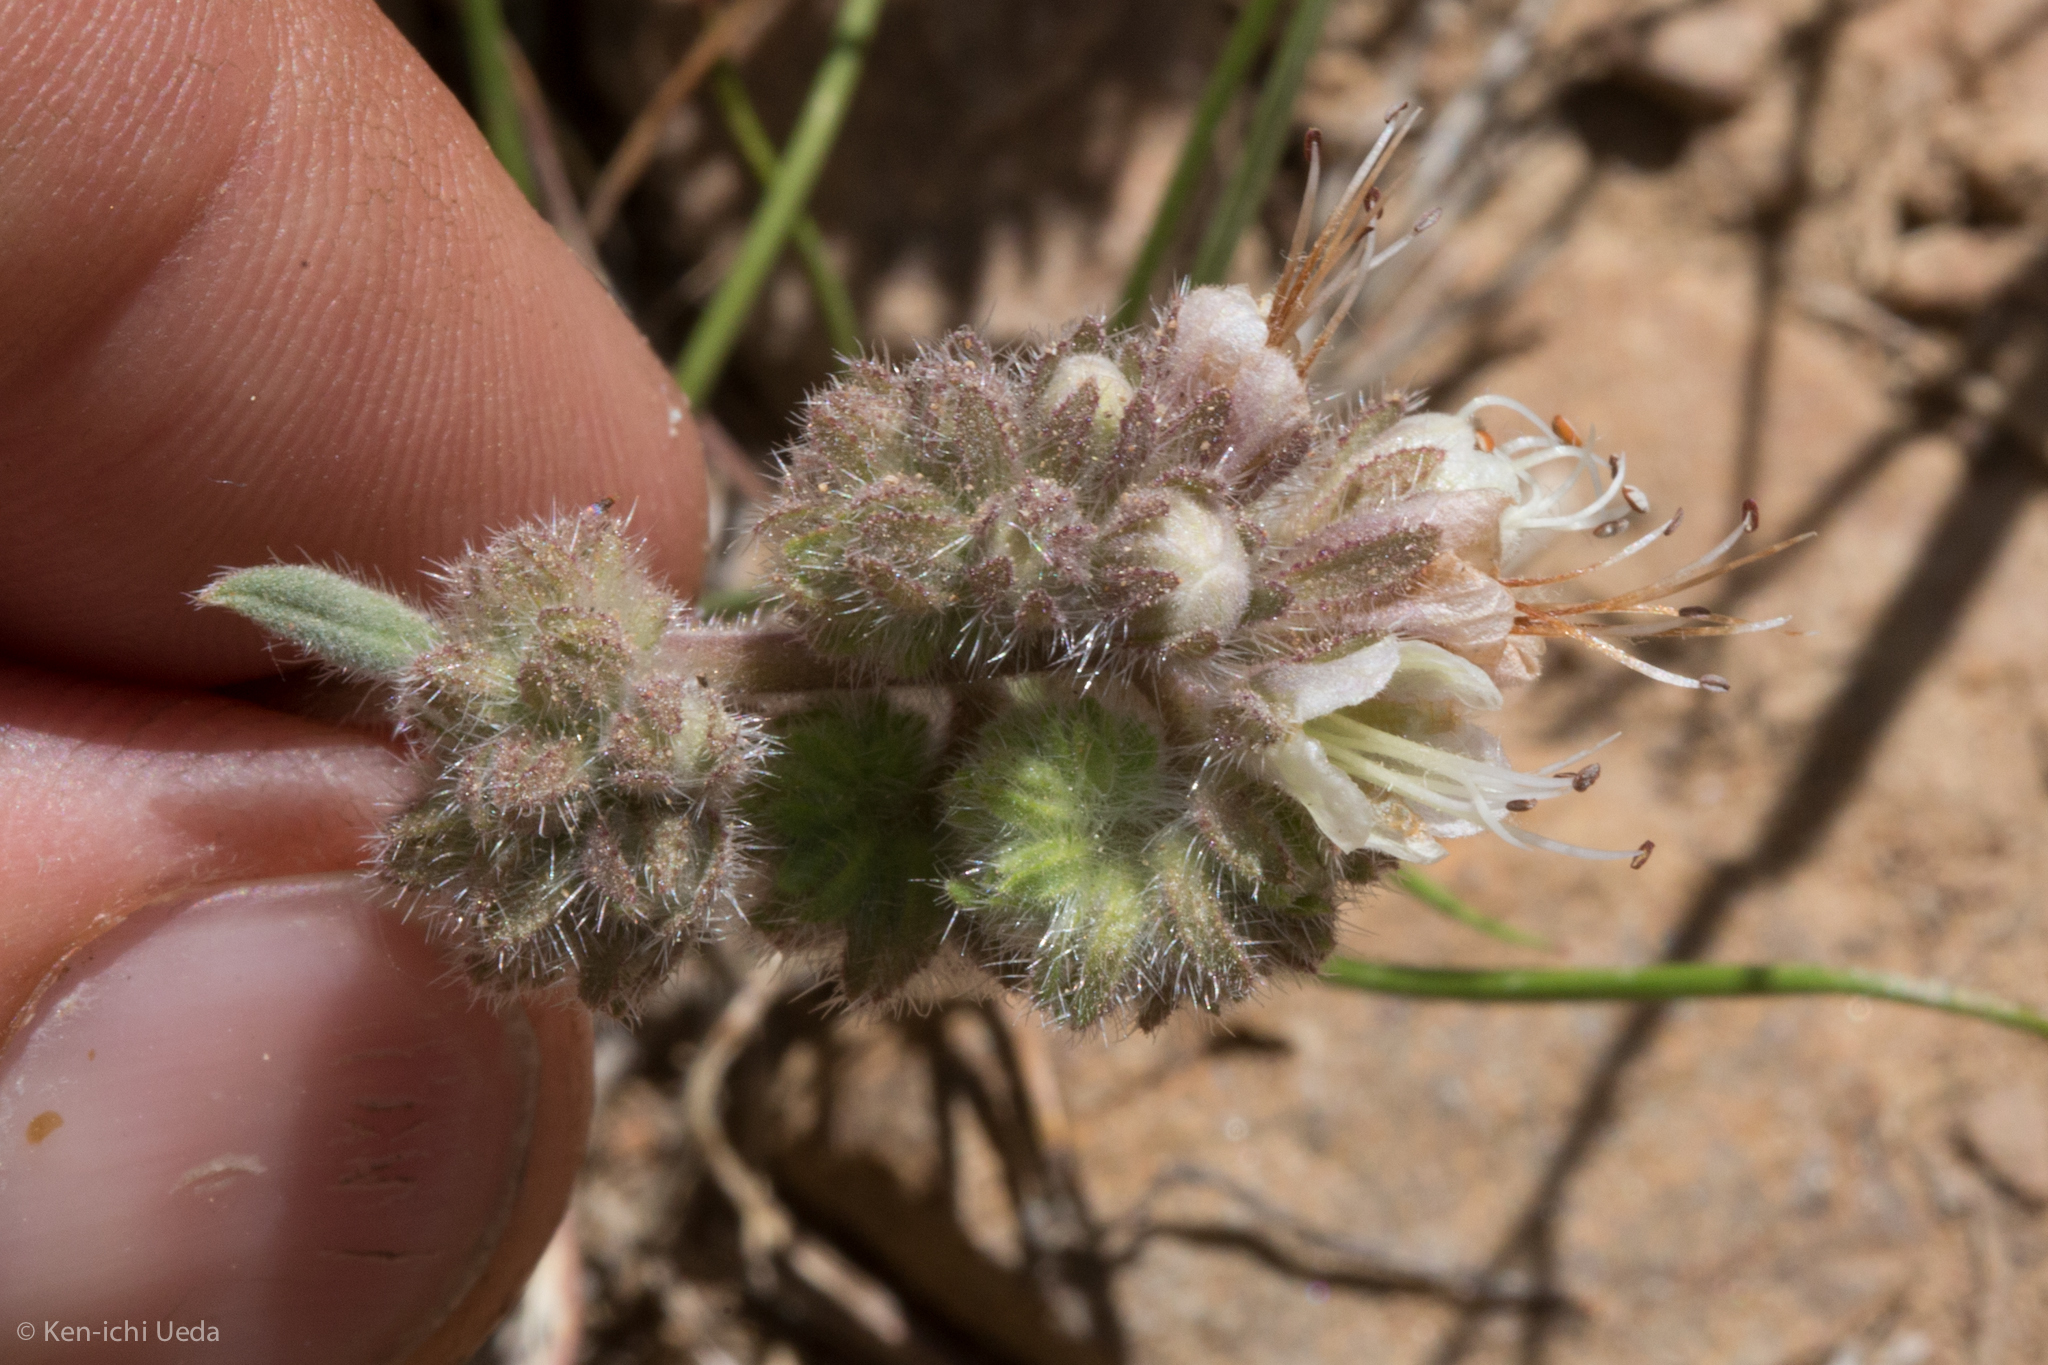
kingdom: Plantae
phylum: Tracheophyta
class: Magnoliopsida
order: Boraginales
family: Hydrophyllaceae
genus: Phacelia
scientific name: Phacelia hastata
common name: Silver-leaved phacelia
